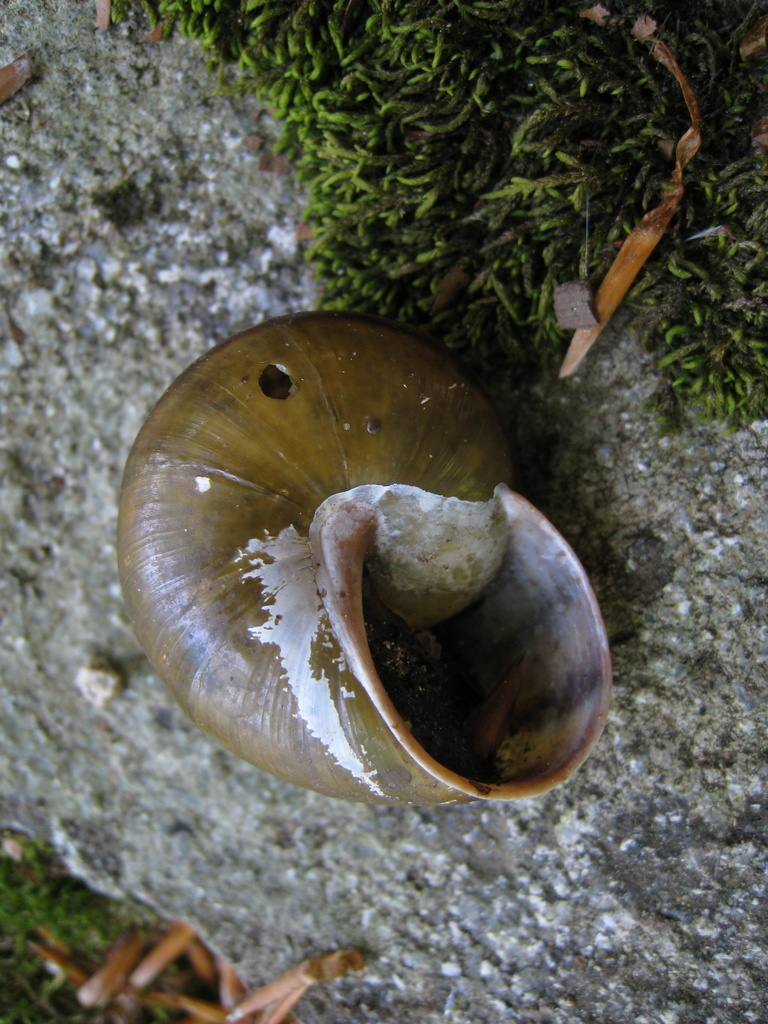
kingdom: Animalia
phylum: Mollusca
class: Gastropoda
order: Stylommatophora
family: Helicidae
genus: Tacheocampylaea
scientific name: Tacheocampylaea raspailii
